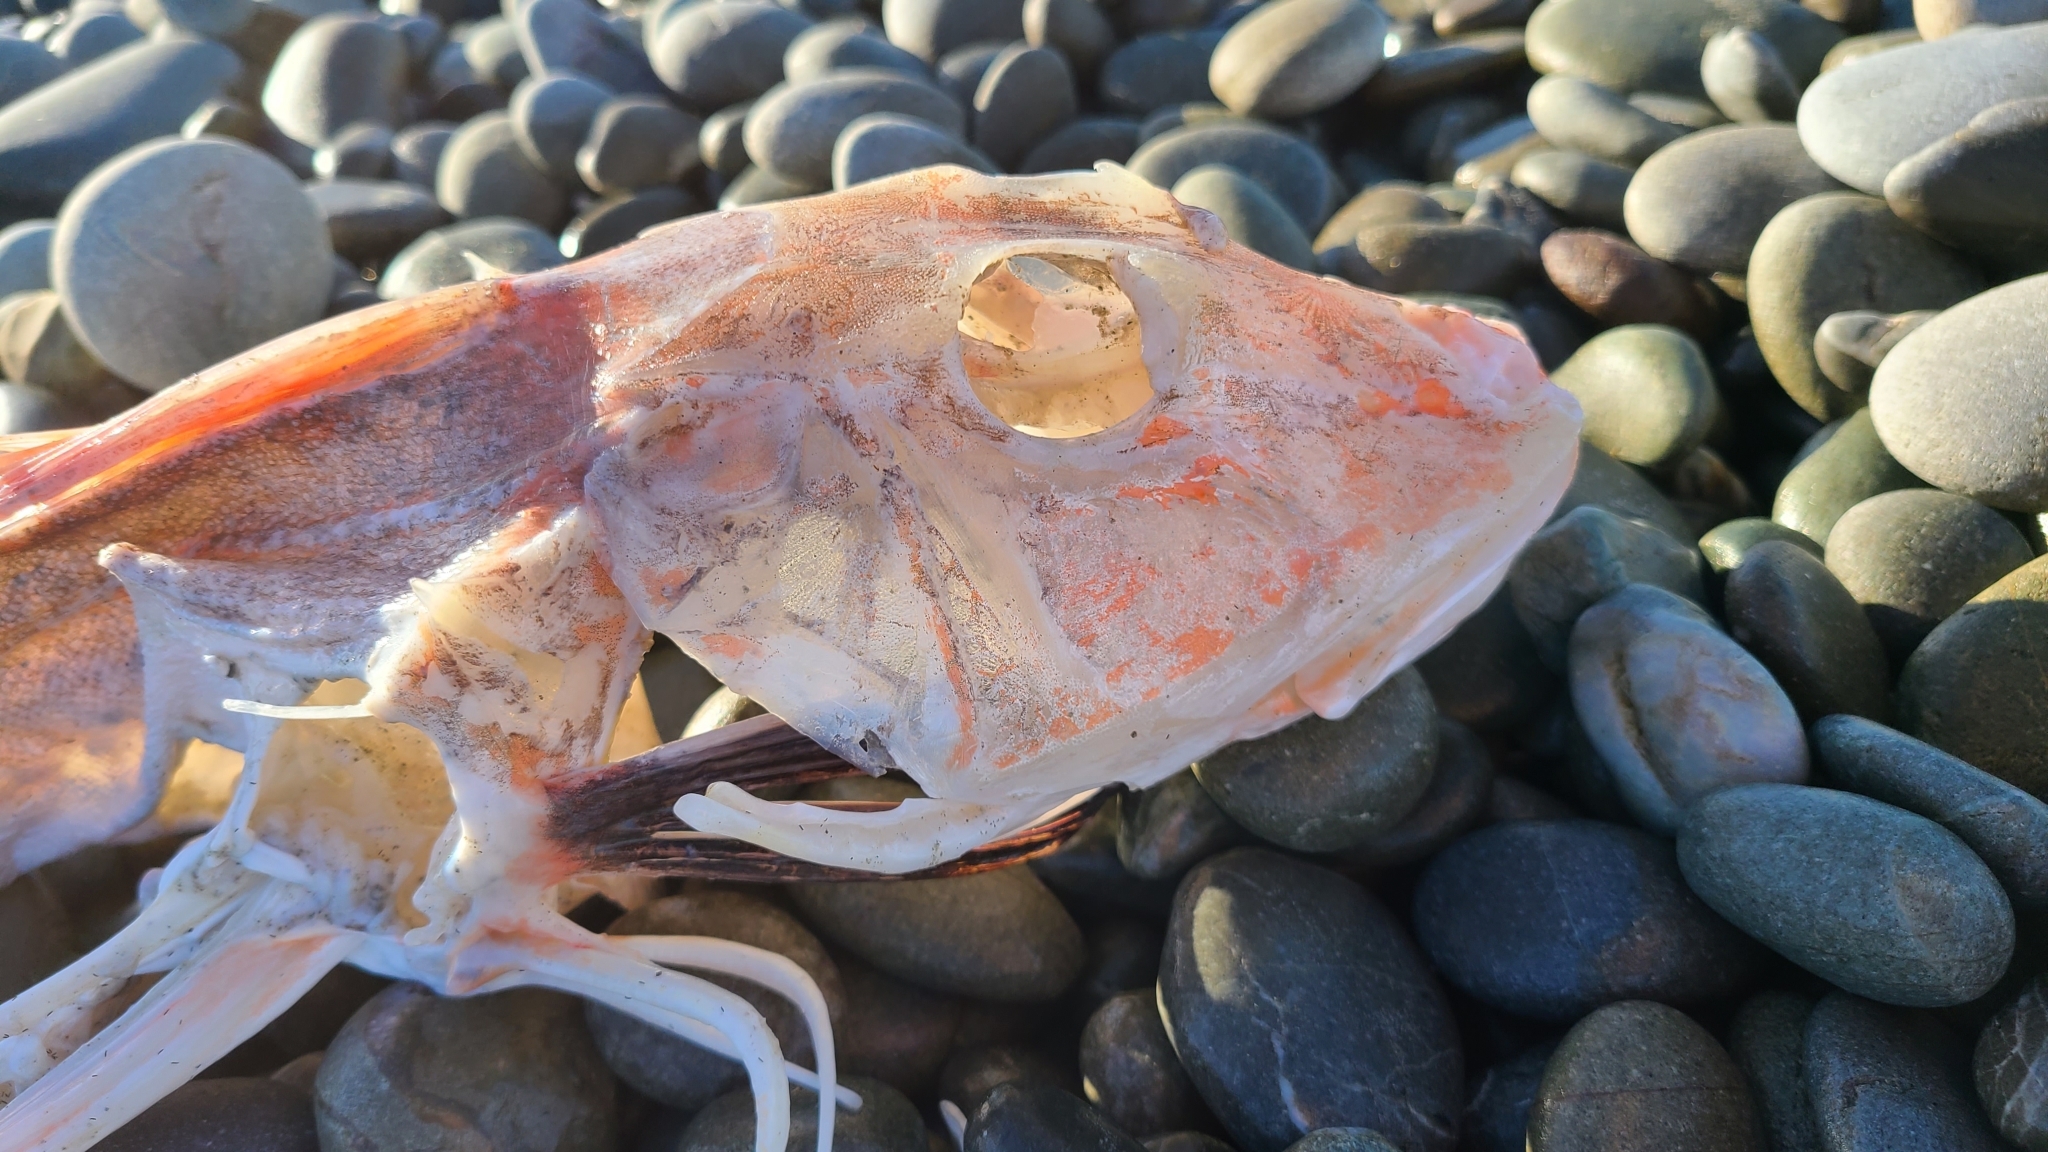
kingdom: Animalia
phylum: Chordata
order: Scorpaeniformes
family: Triglidae
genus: Chelidonichthys
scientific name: Chelidonichthys kumu
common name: Bluefin gurnard
